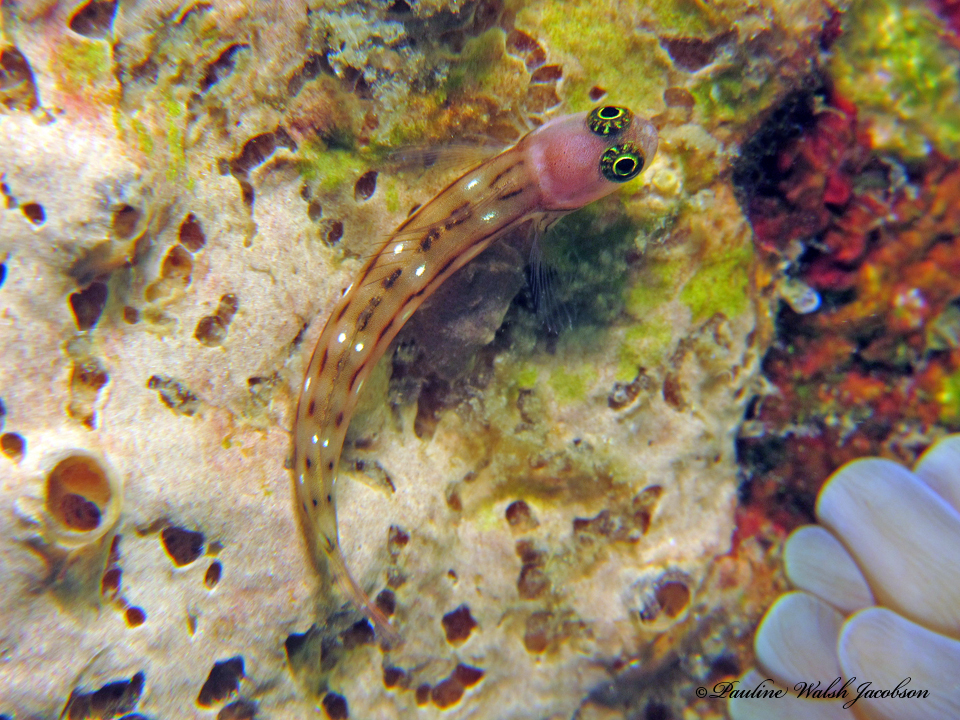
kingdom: Animalia
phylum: Chordata
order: Perciformes
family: Blenniidae
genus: Ecsenius
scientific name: Ecsenius trilineatus
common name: Three-lined blenny
